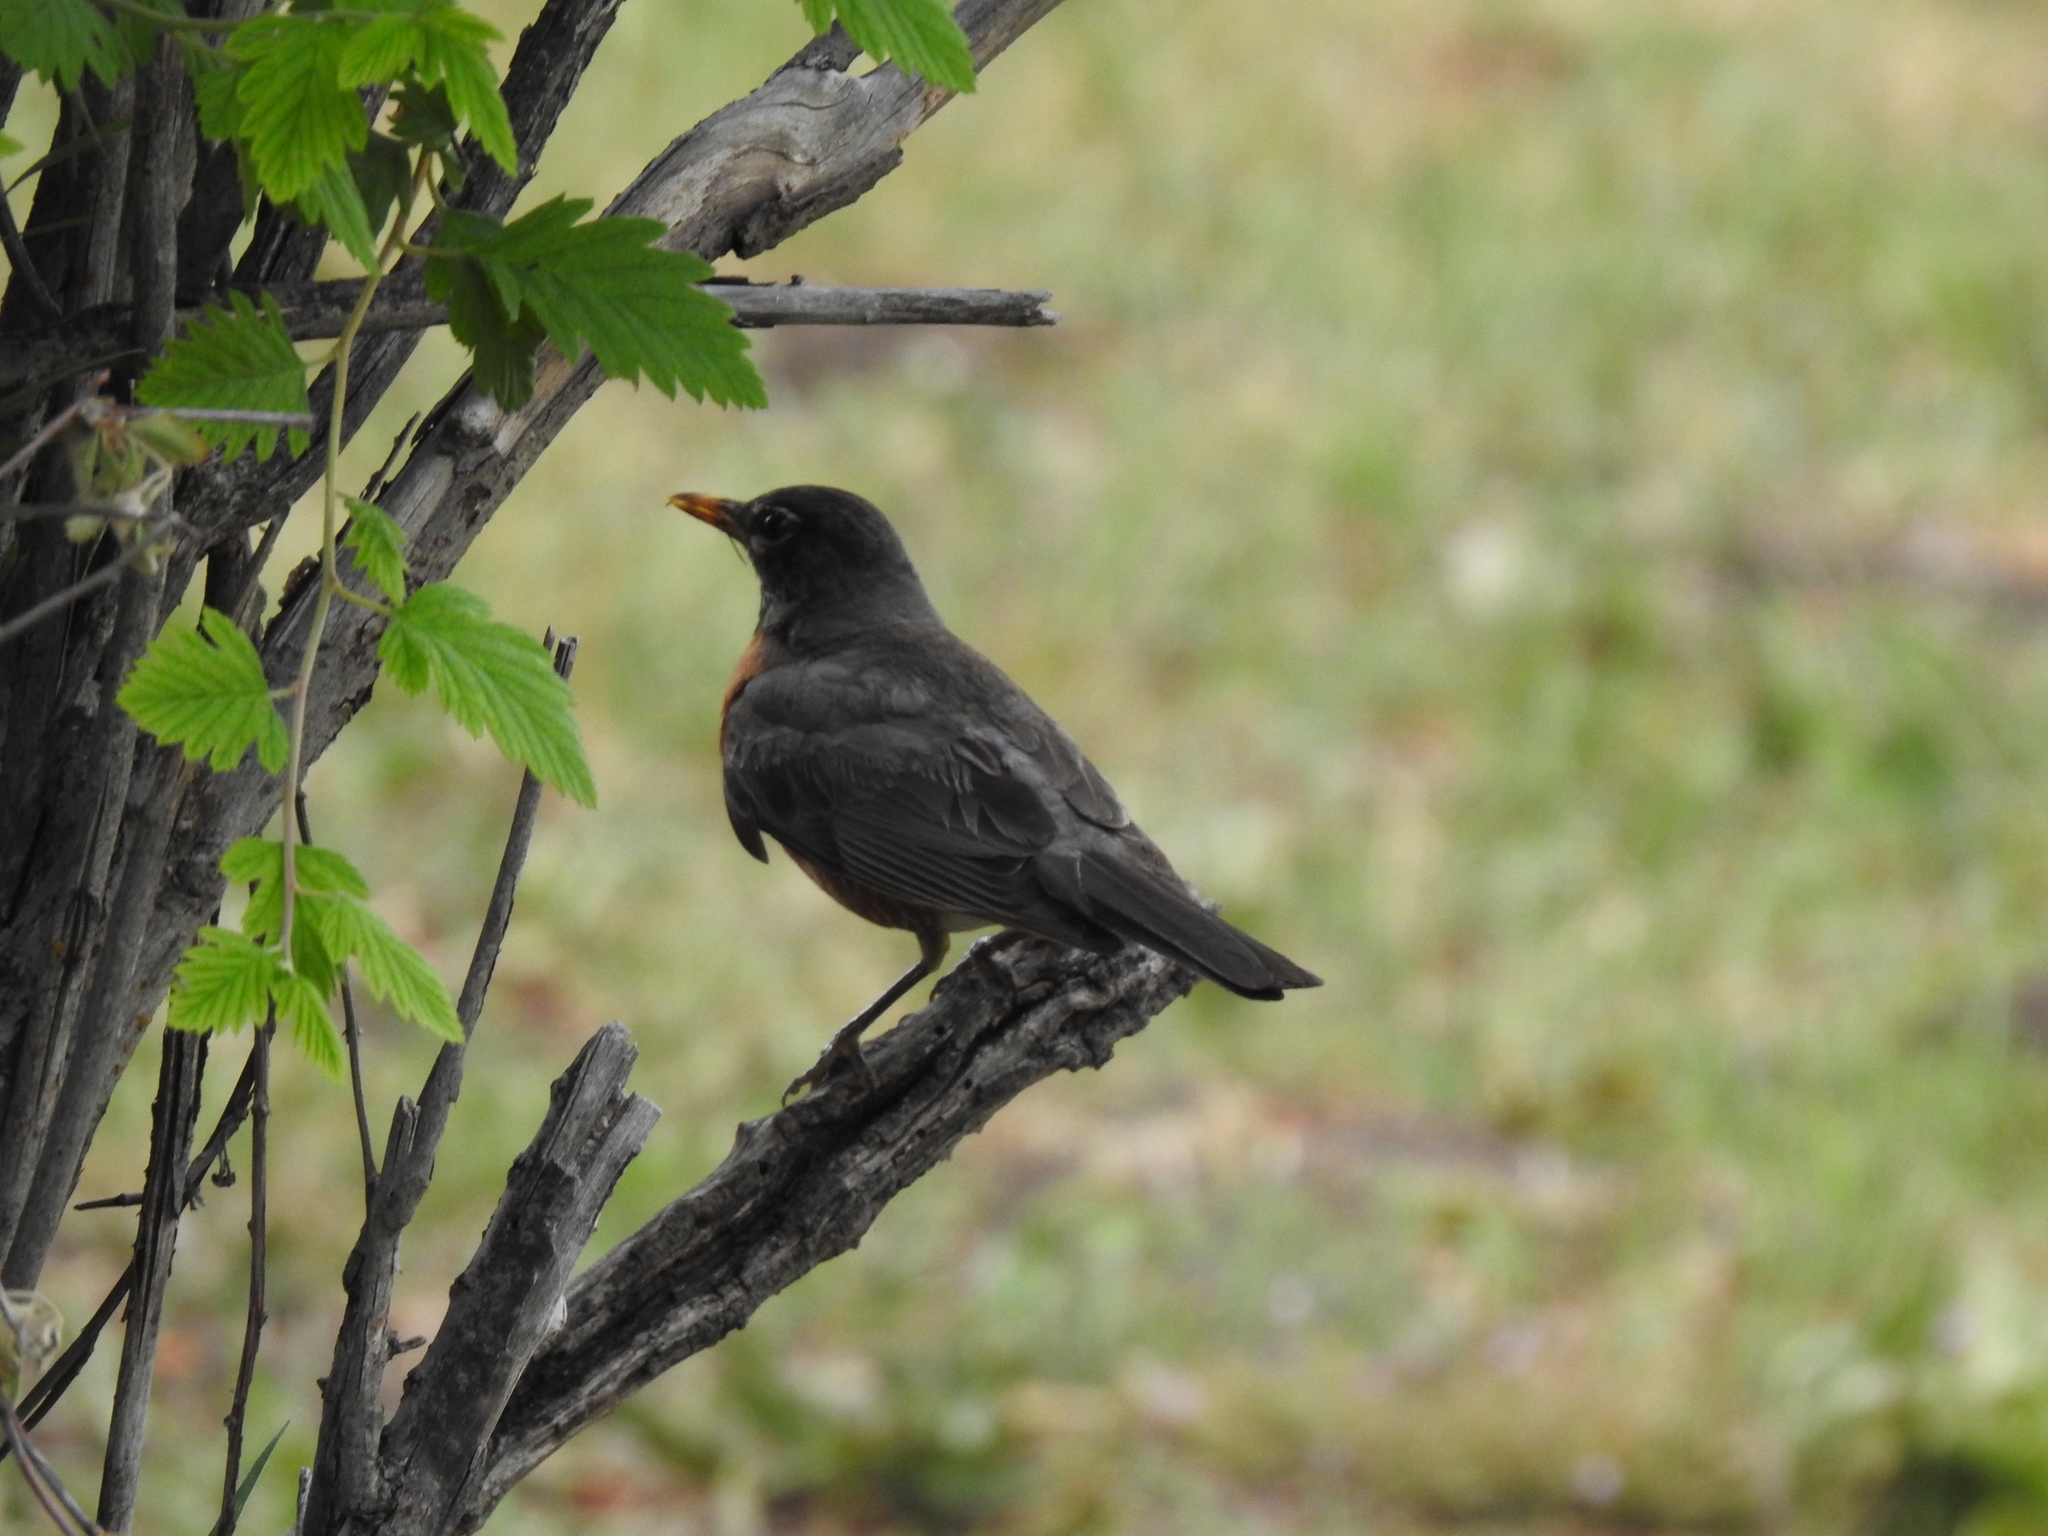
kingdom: Animalia
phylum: Chordata
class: Aves
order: Passeriformes
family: Turdidae
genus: Turdus
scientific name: Turdus migratorius
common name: American robin
